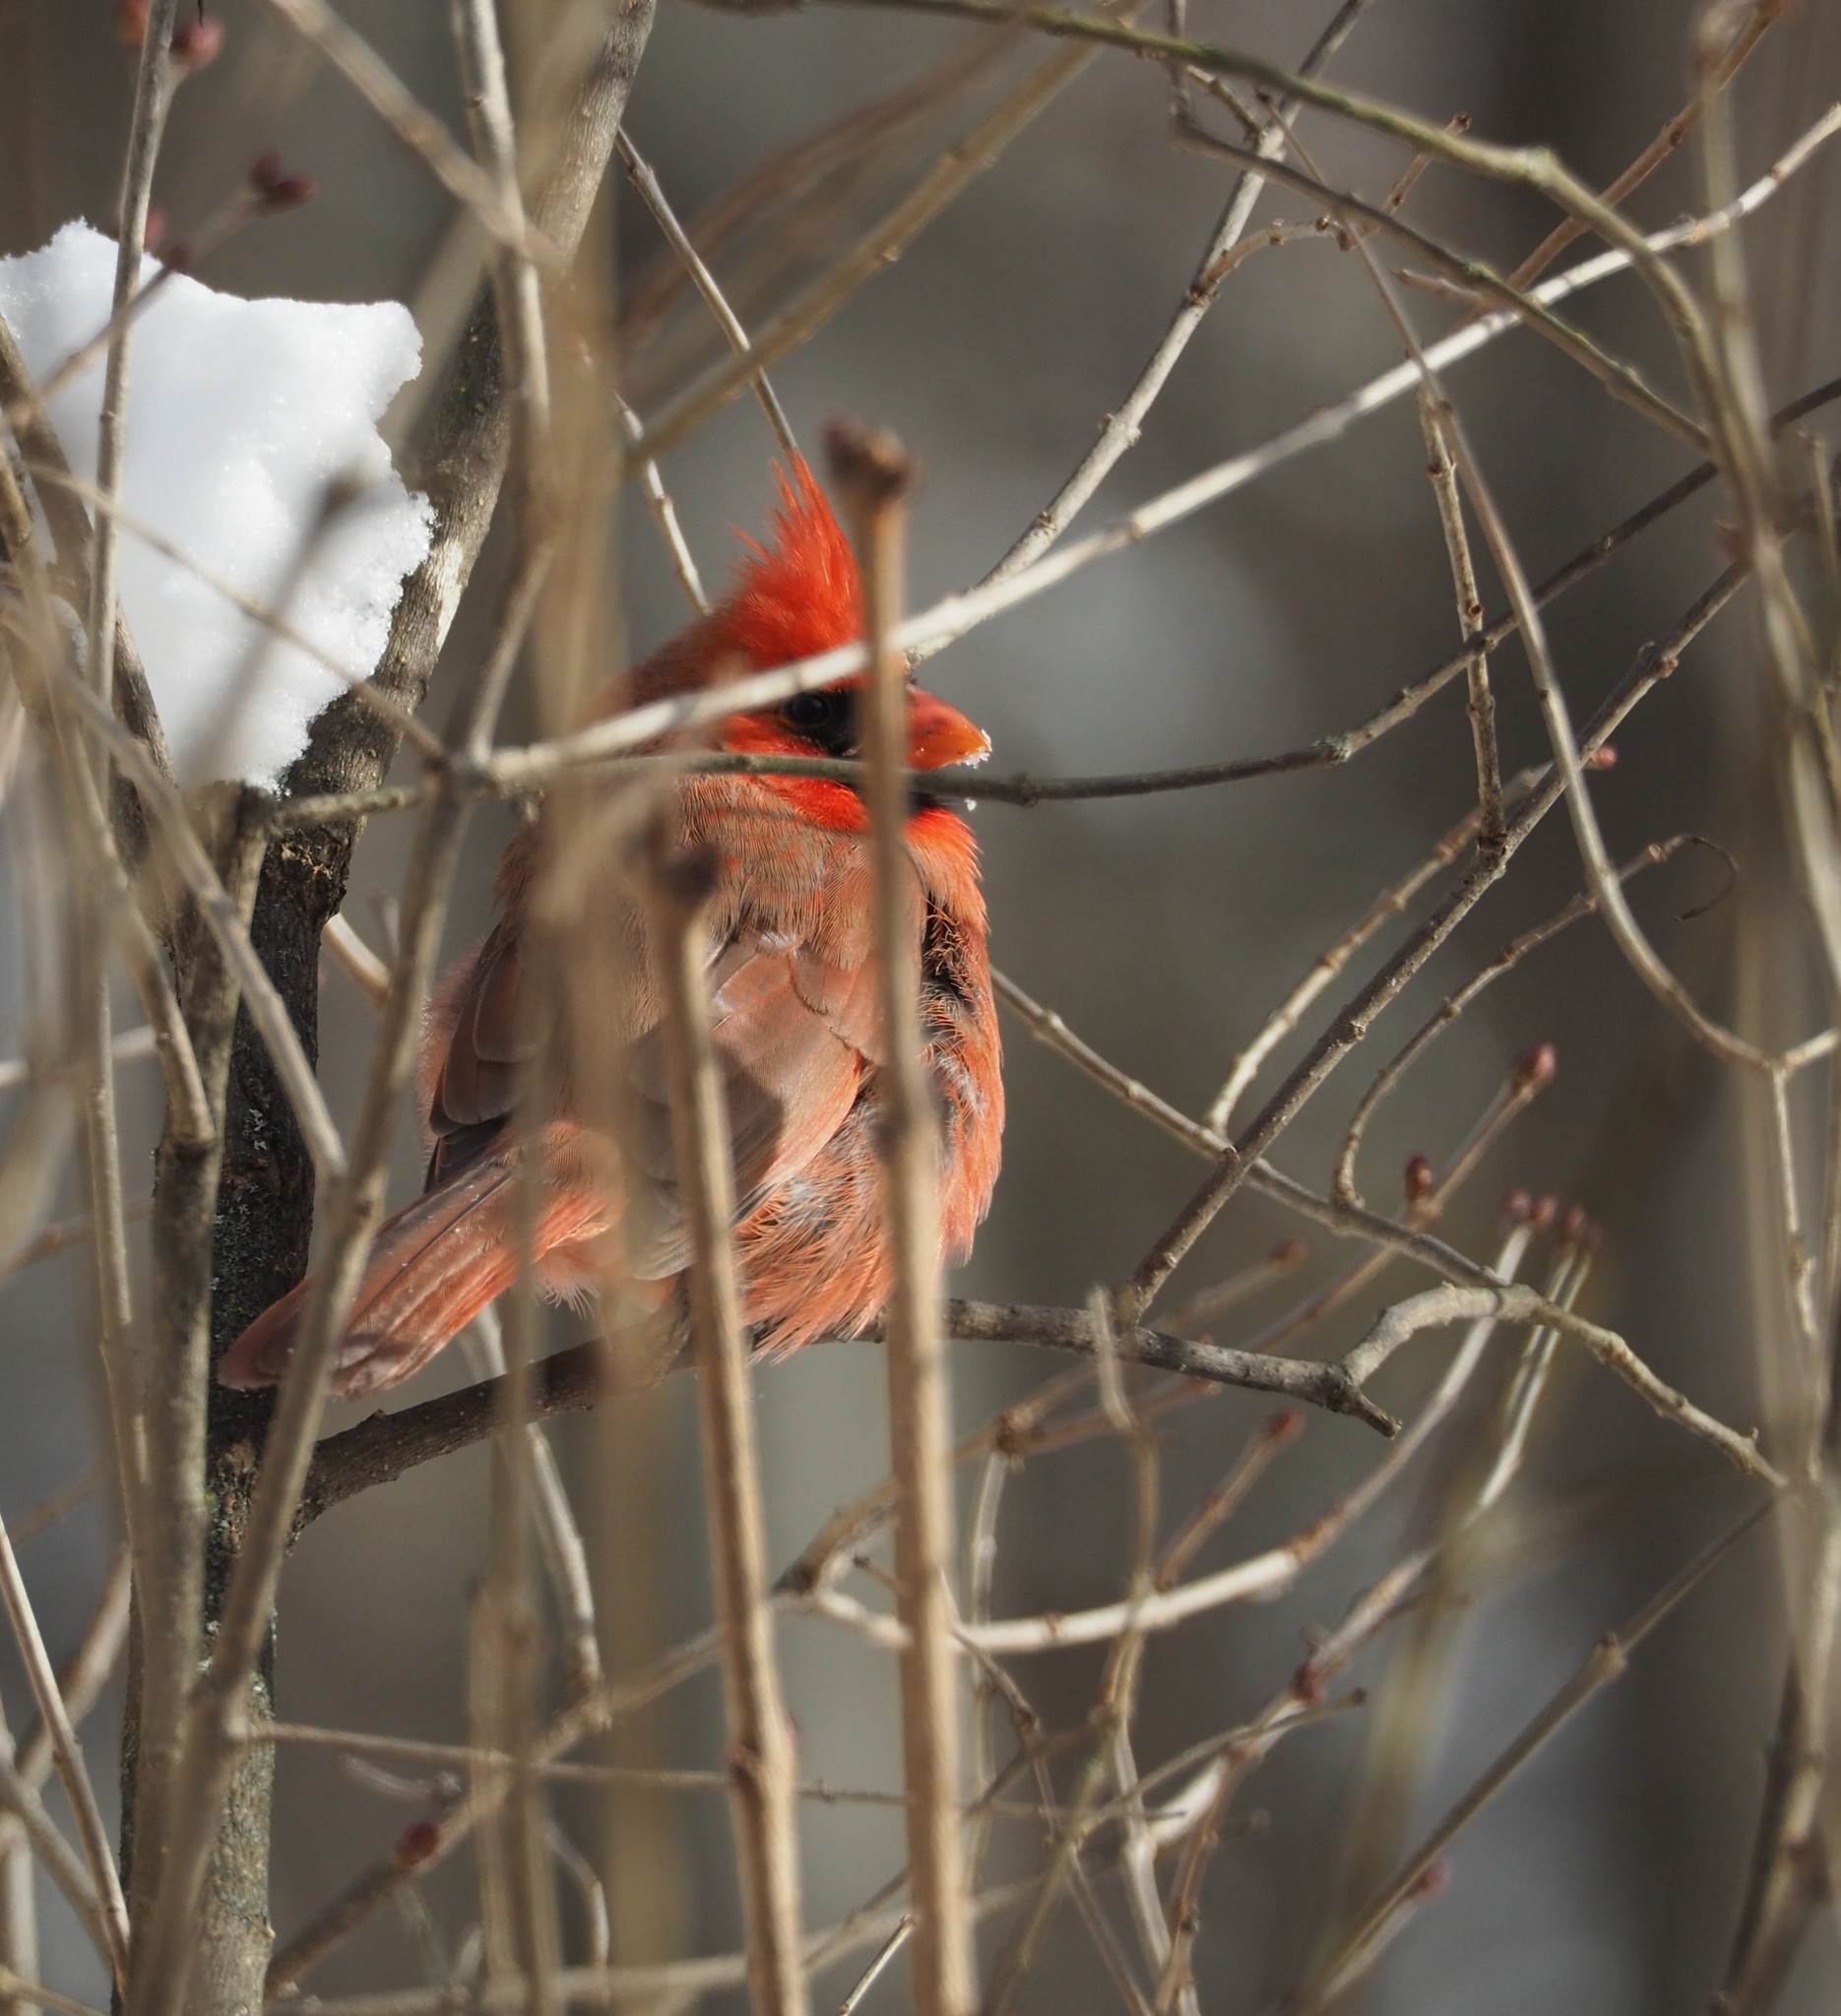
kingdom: Animalia
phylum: Chordata
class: Aves
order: Passeriformes
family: Cardinalidae
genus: Cardinalis
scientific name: Cardinalis cardinalis
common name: Northern cardinal
